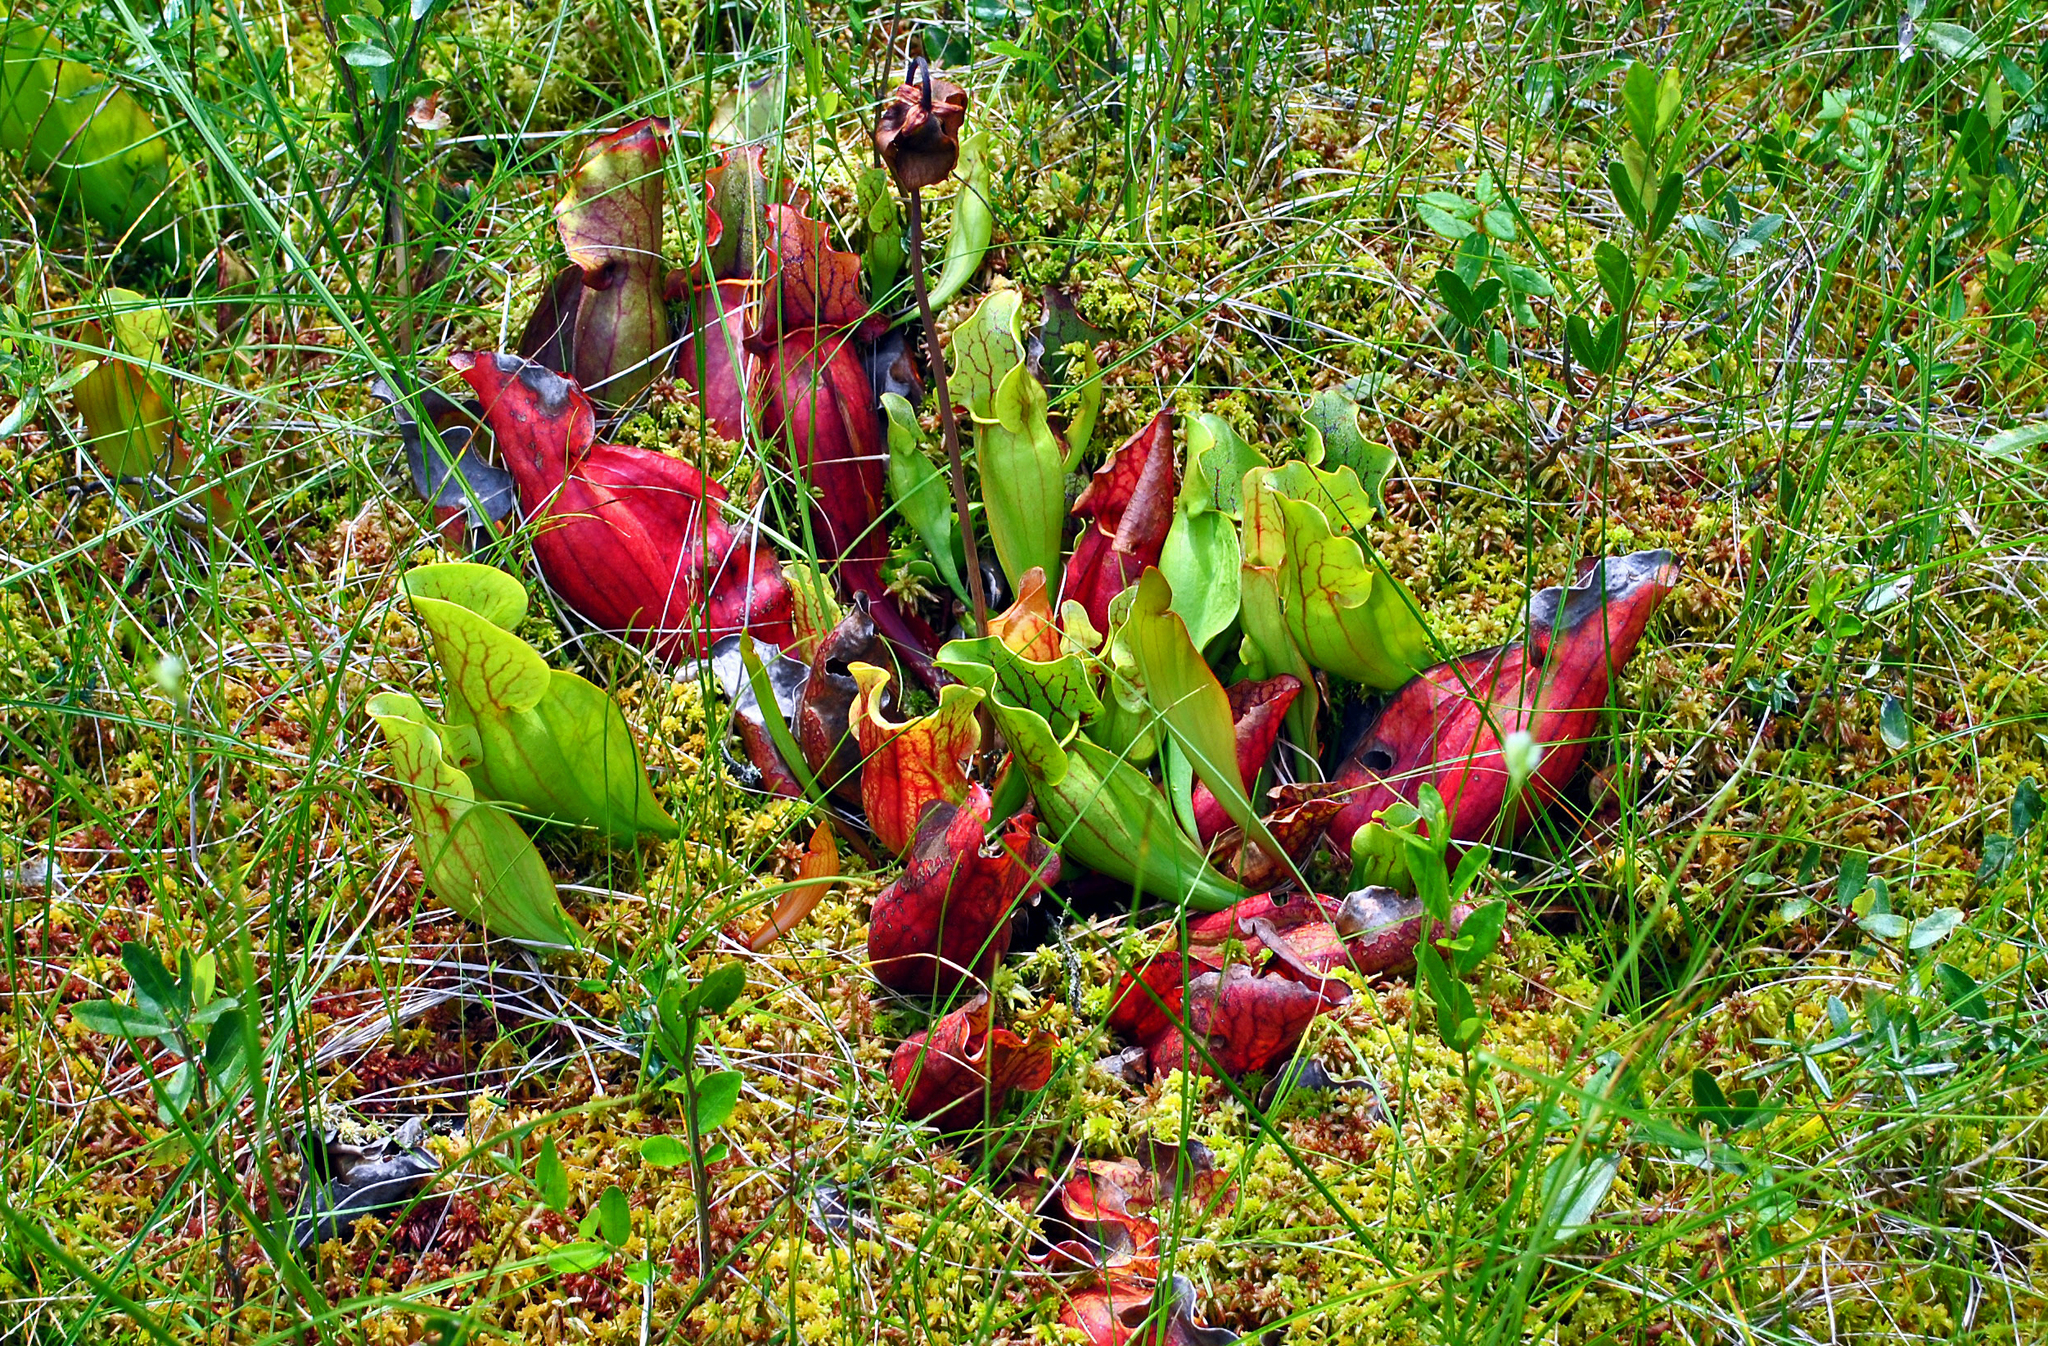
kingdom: Plantae
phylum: Tracheophyta
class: Magnoliopsida
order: Ericales
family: Sarraceniaceae
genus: Sarracenia
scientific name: Sarracenia purpurea
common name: Pitcherplant
